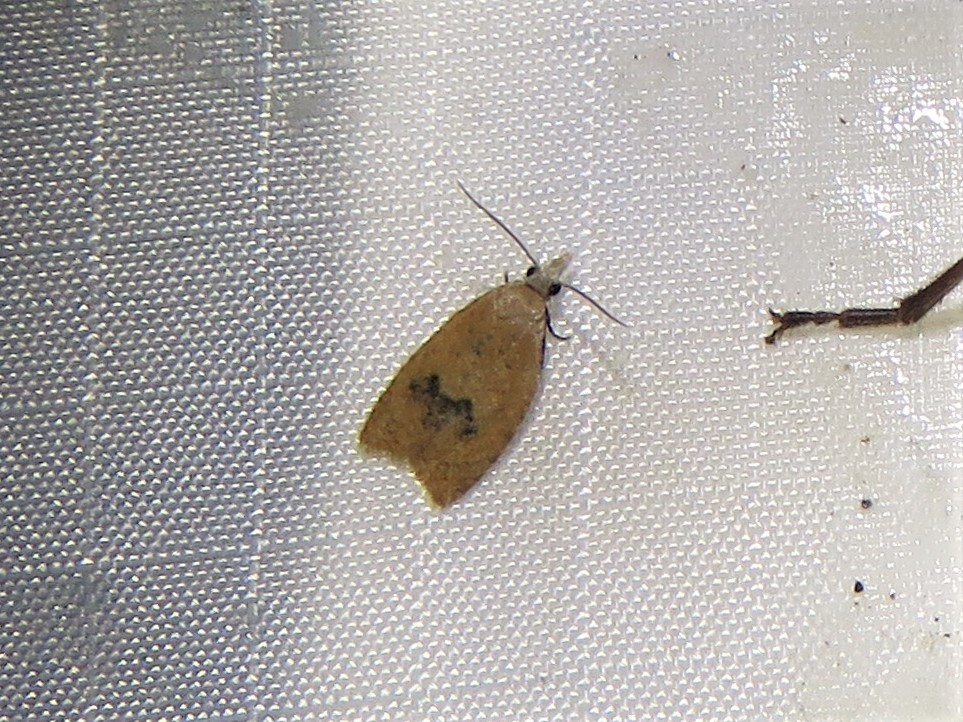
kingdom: Animalia
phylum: Arthropoda
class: Insecta
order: Lepidoptera
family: Tortricidae
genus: Sparganothoides
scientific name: Sparganothoides lentiginosana
